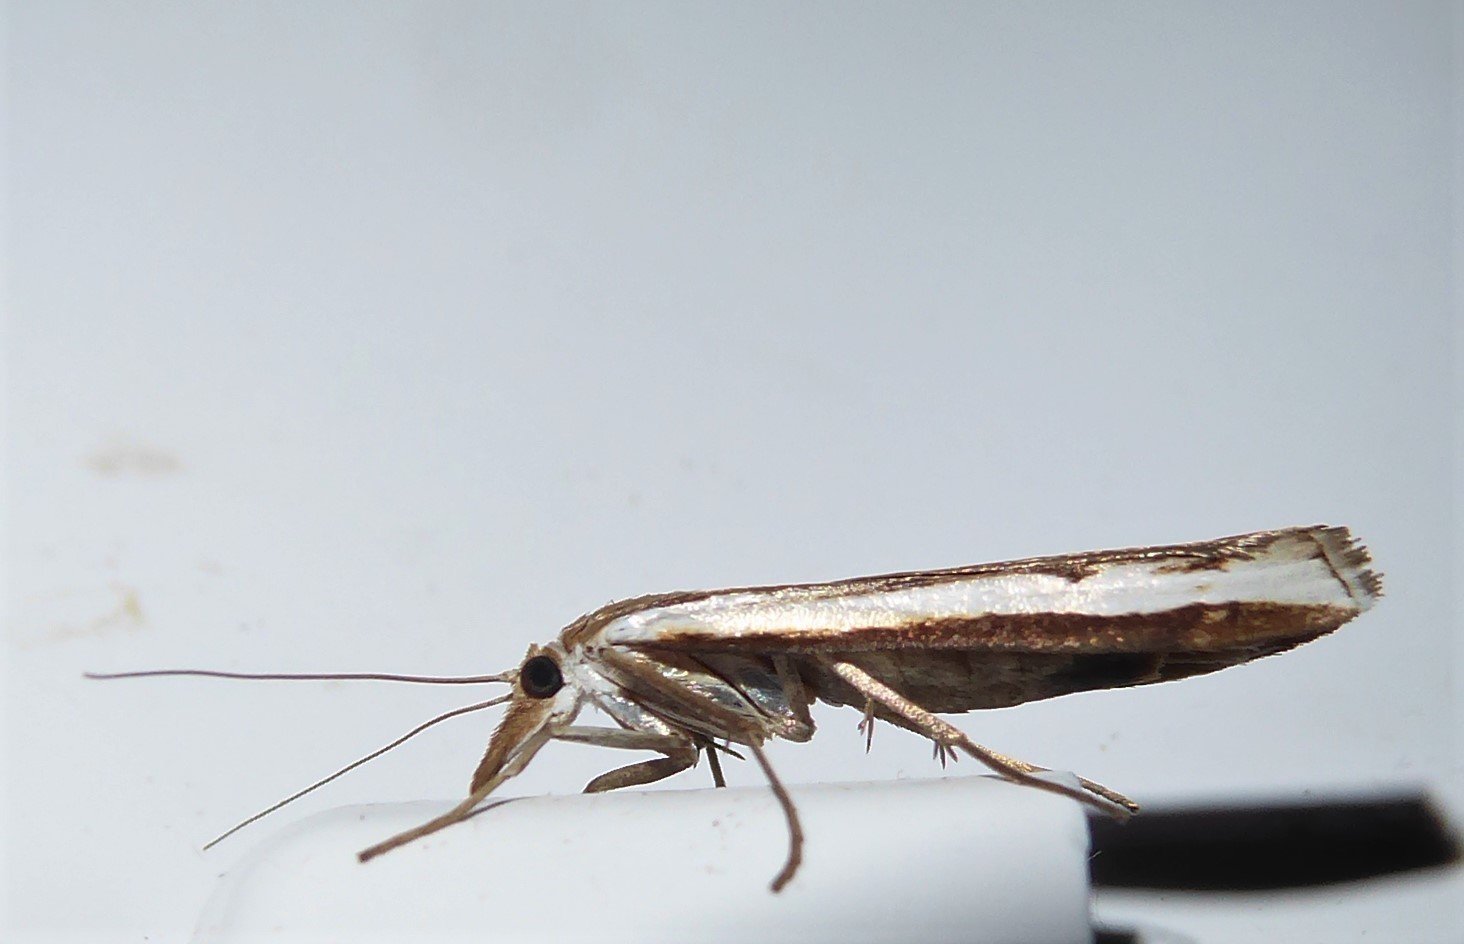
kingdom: Animalia
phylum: Arthropoda
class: Insecta
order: Lepidoptera
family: Crambidae
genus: Orocrambus
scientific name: Orocrambus flexuosellus
